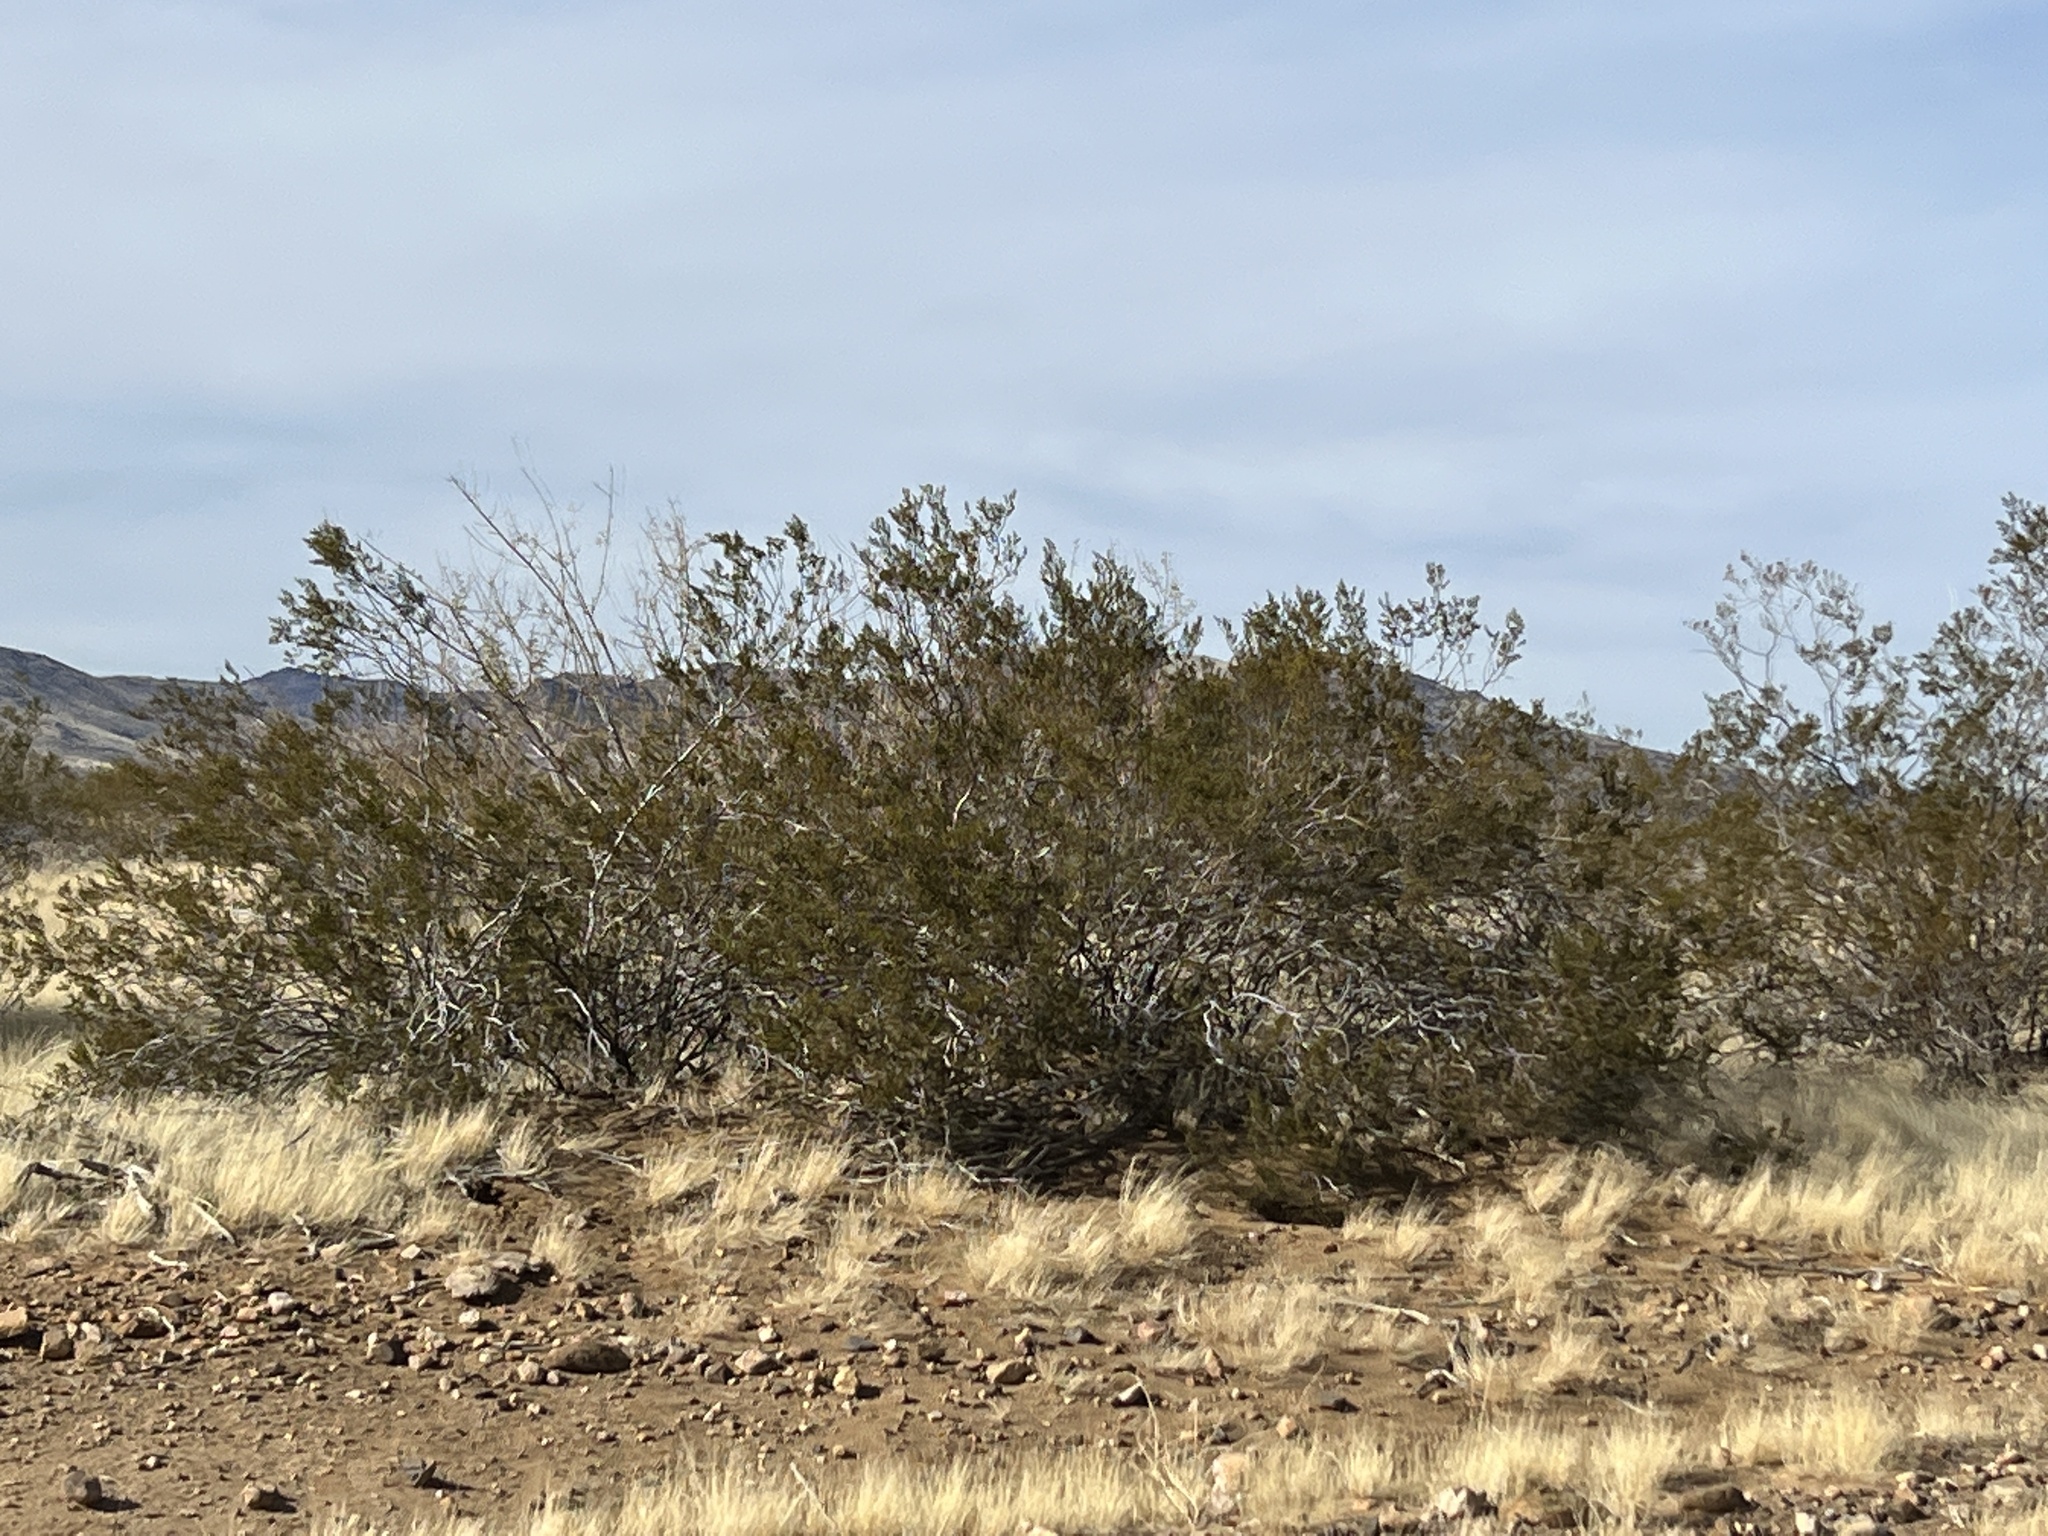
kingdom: Plantae
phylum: Tracheophyta
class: Magnoliopsida
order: Zygophyllales
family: Zygophyllaceae
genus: Larrea
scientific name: Larrea tridentata
